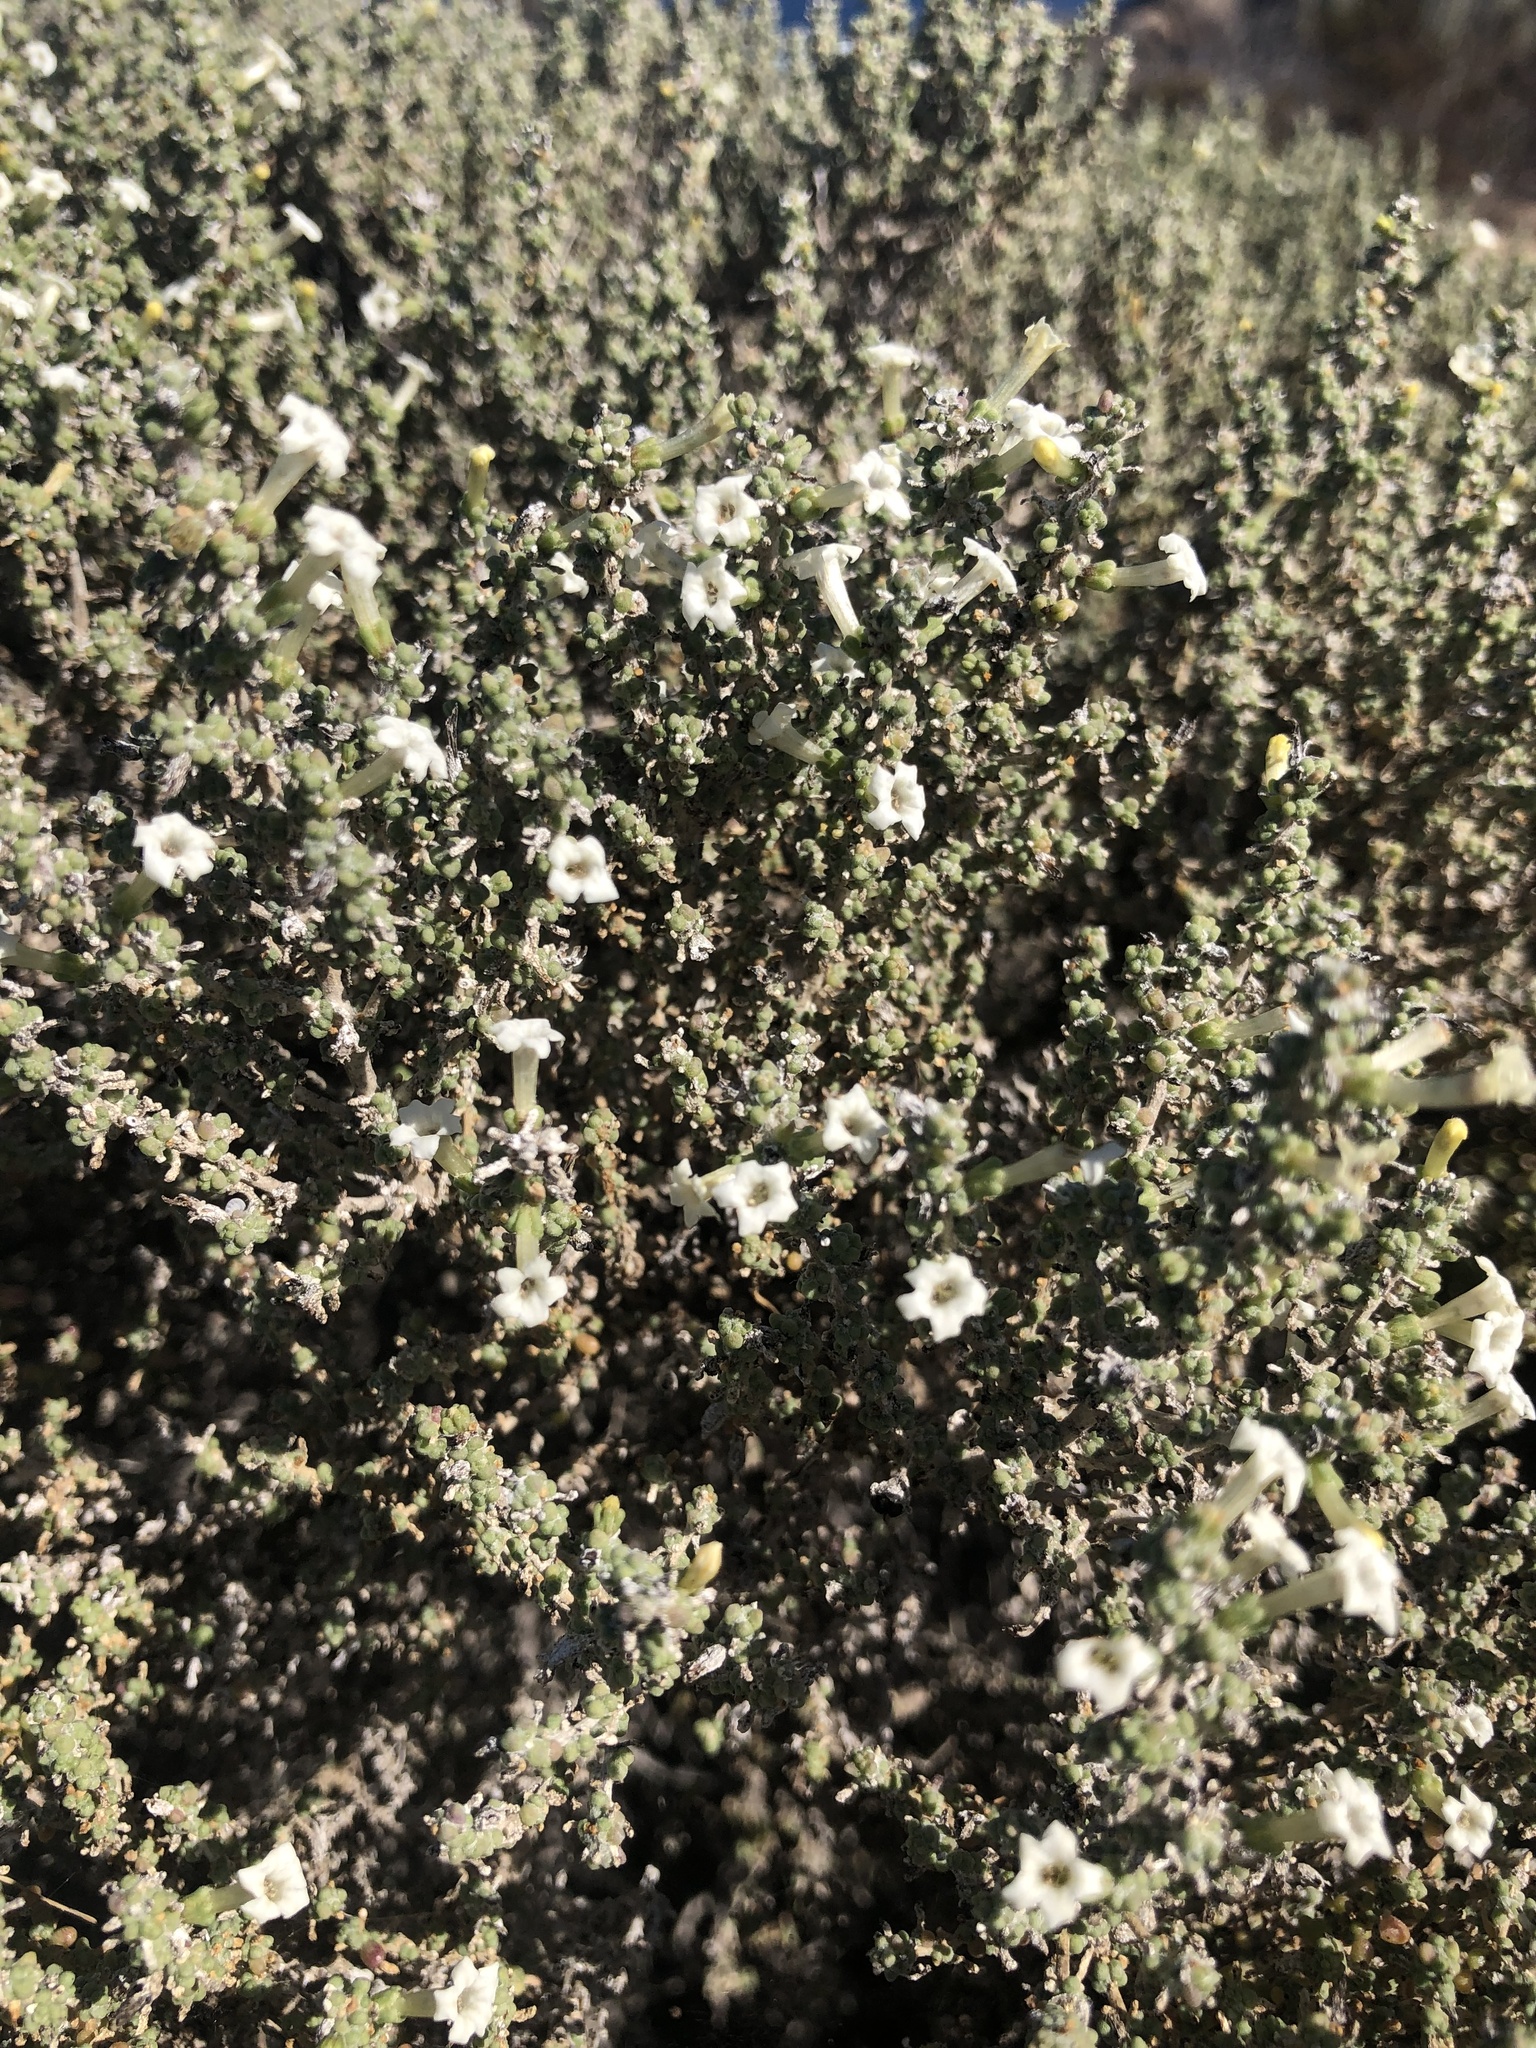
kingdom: Plantae
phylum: Tracheophyta
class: Magnoliopsida
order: Solanales
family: Solanaceae
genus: Nolana
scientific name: Nolana sedifolia
